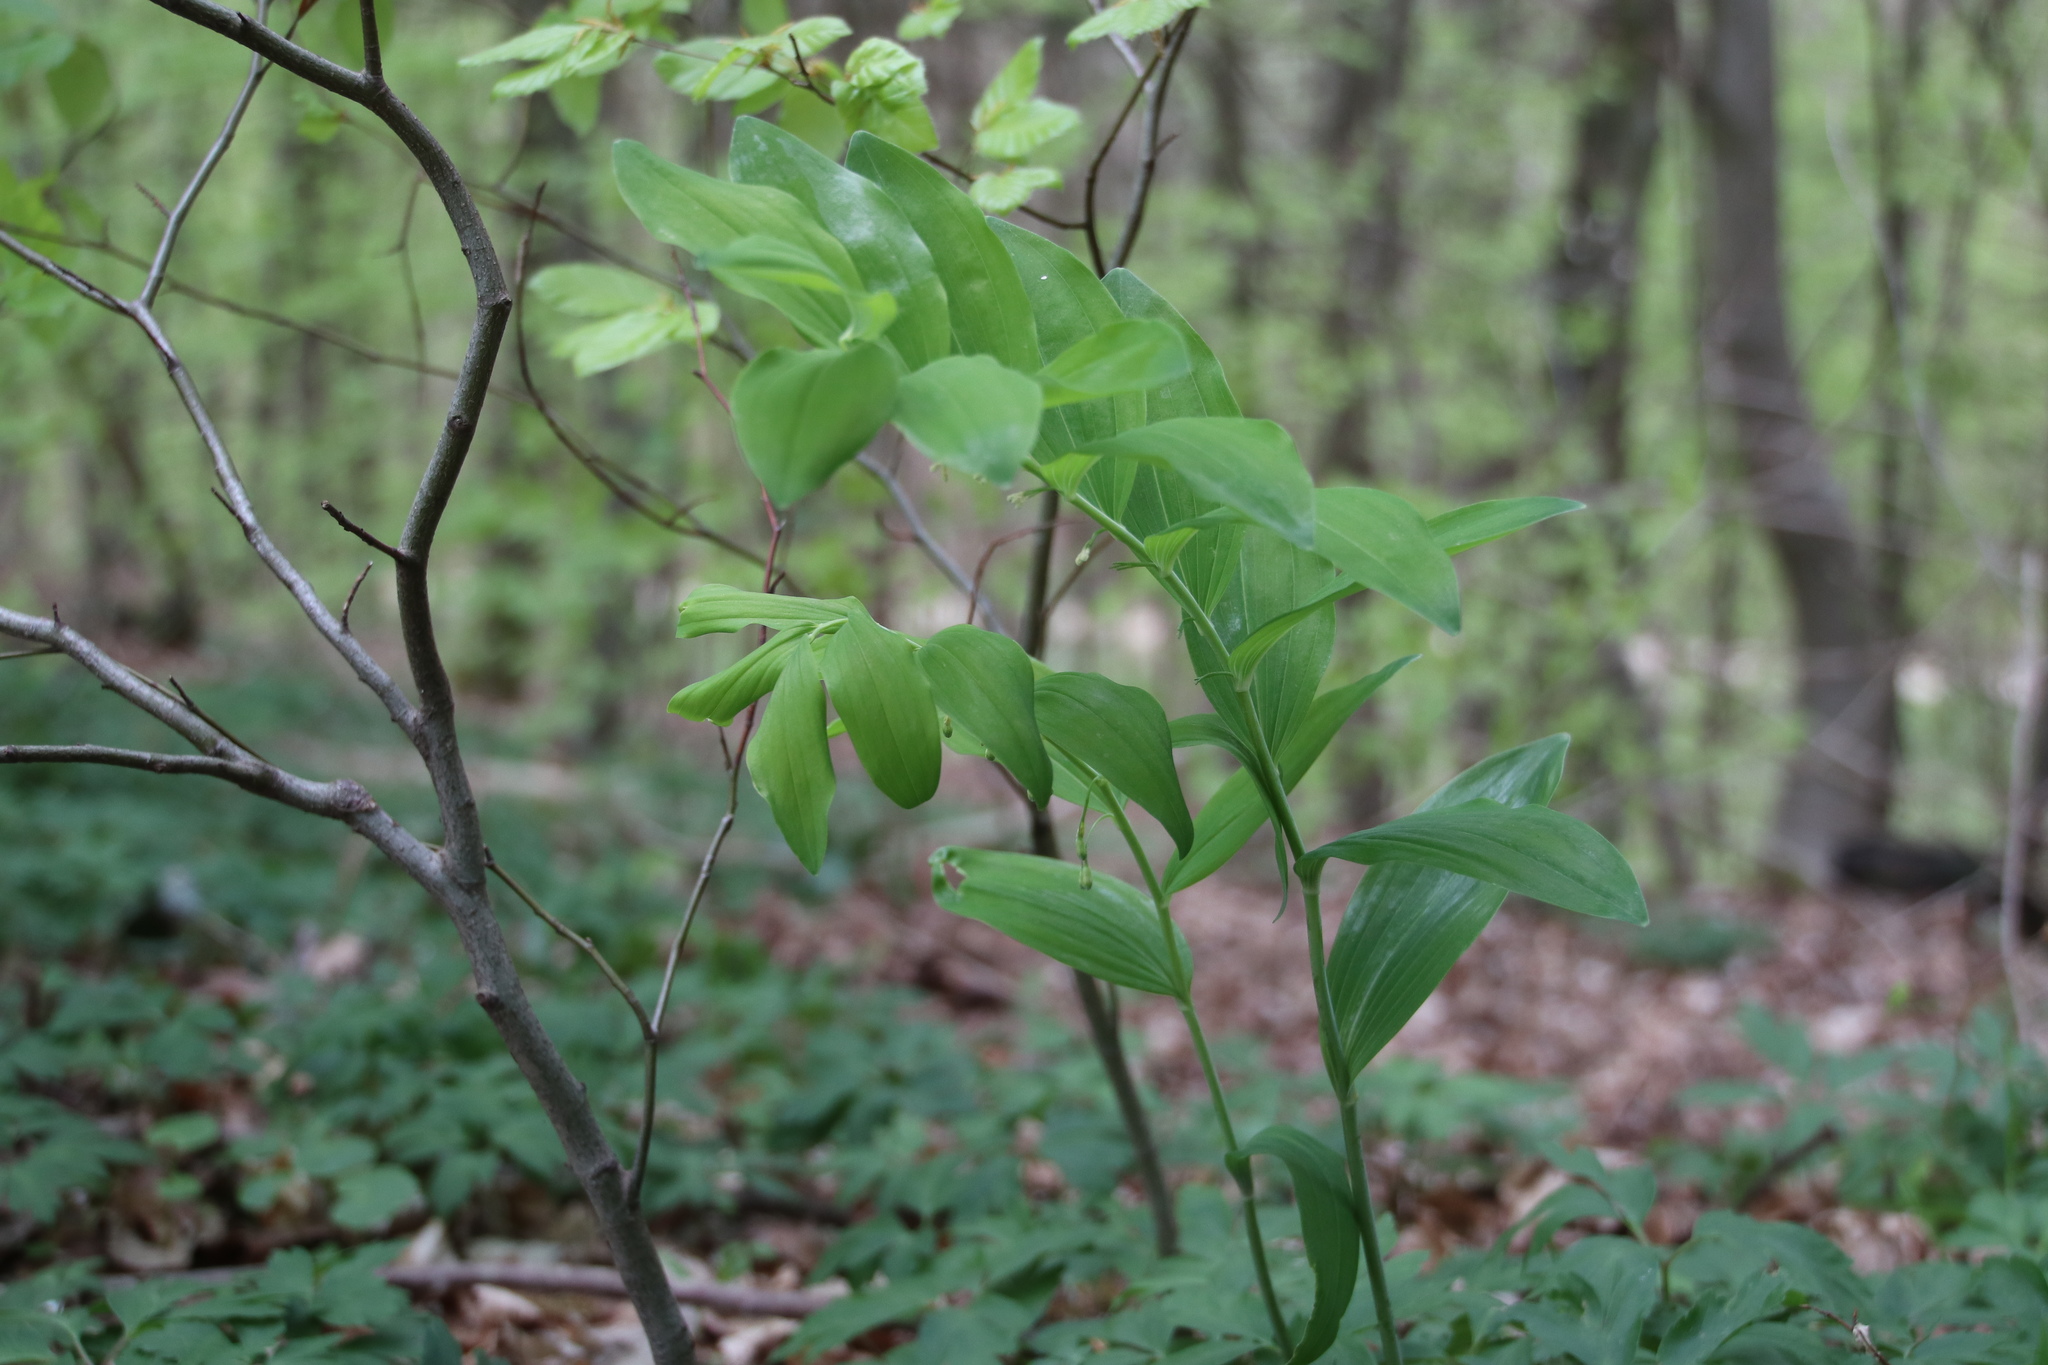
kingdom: Plantae
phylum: Tracheophyta
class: Liliopsida
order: Asparagales
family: Asparagaceae
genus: Polygonatum
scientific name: Polygonatum multiflorum
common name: Solomon's-seal
